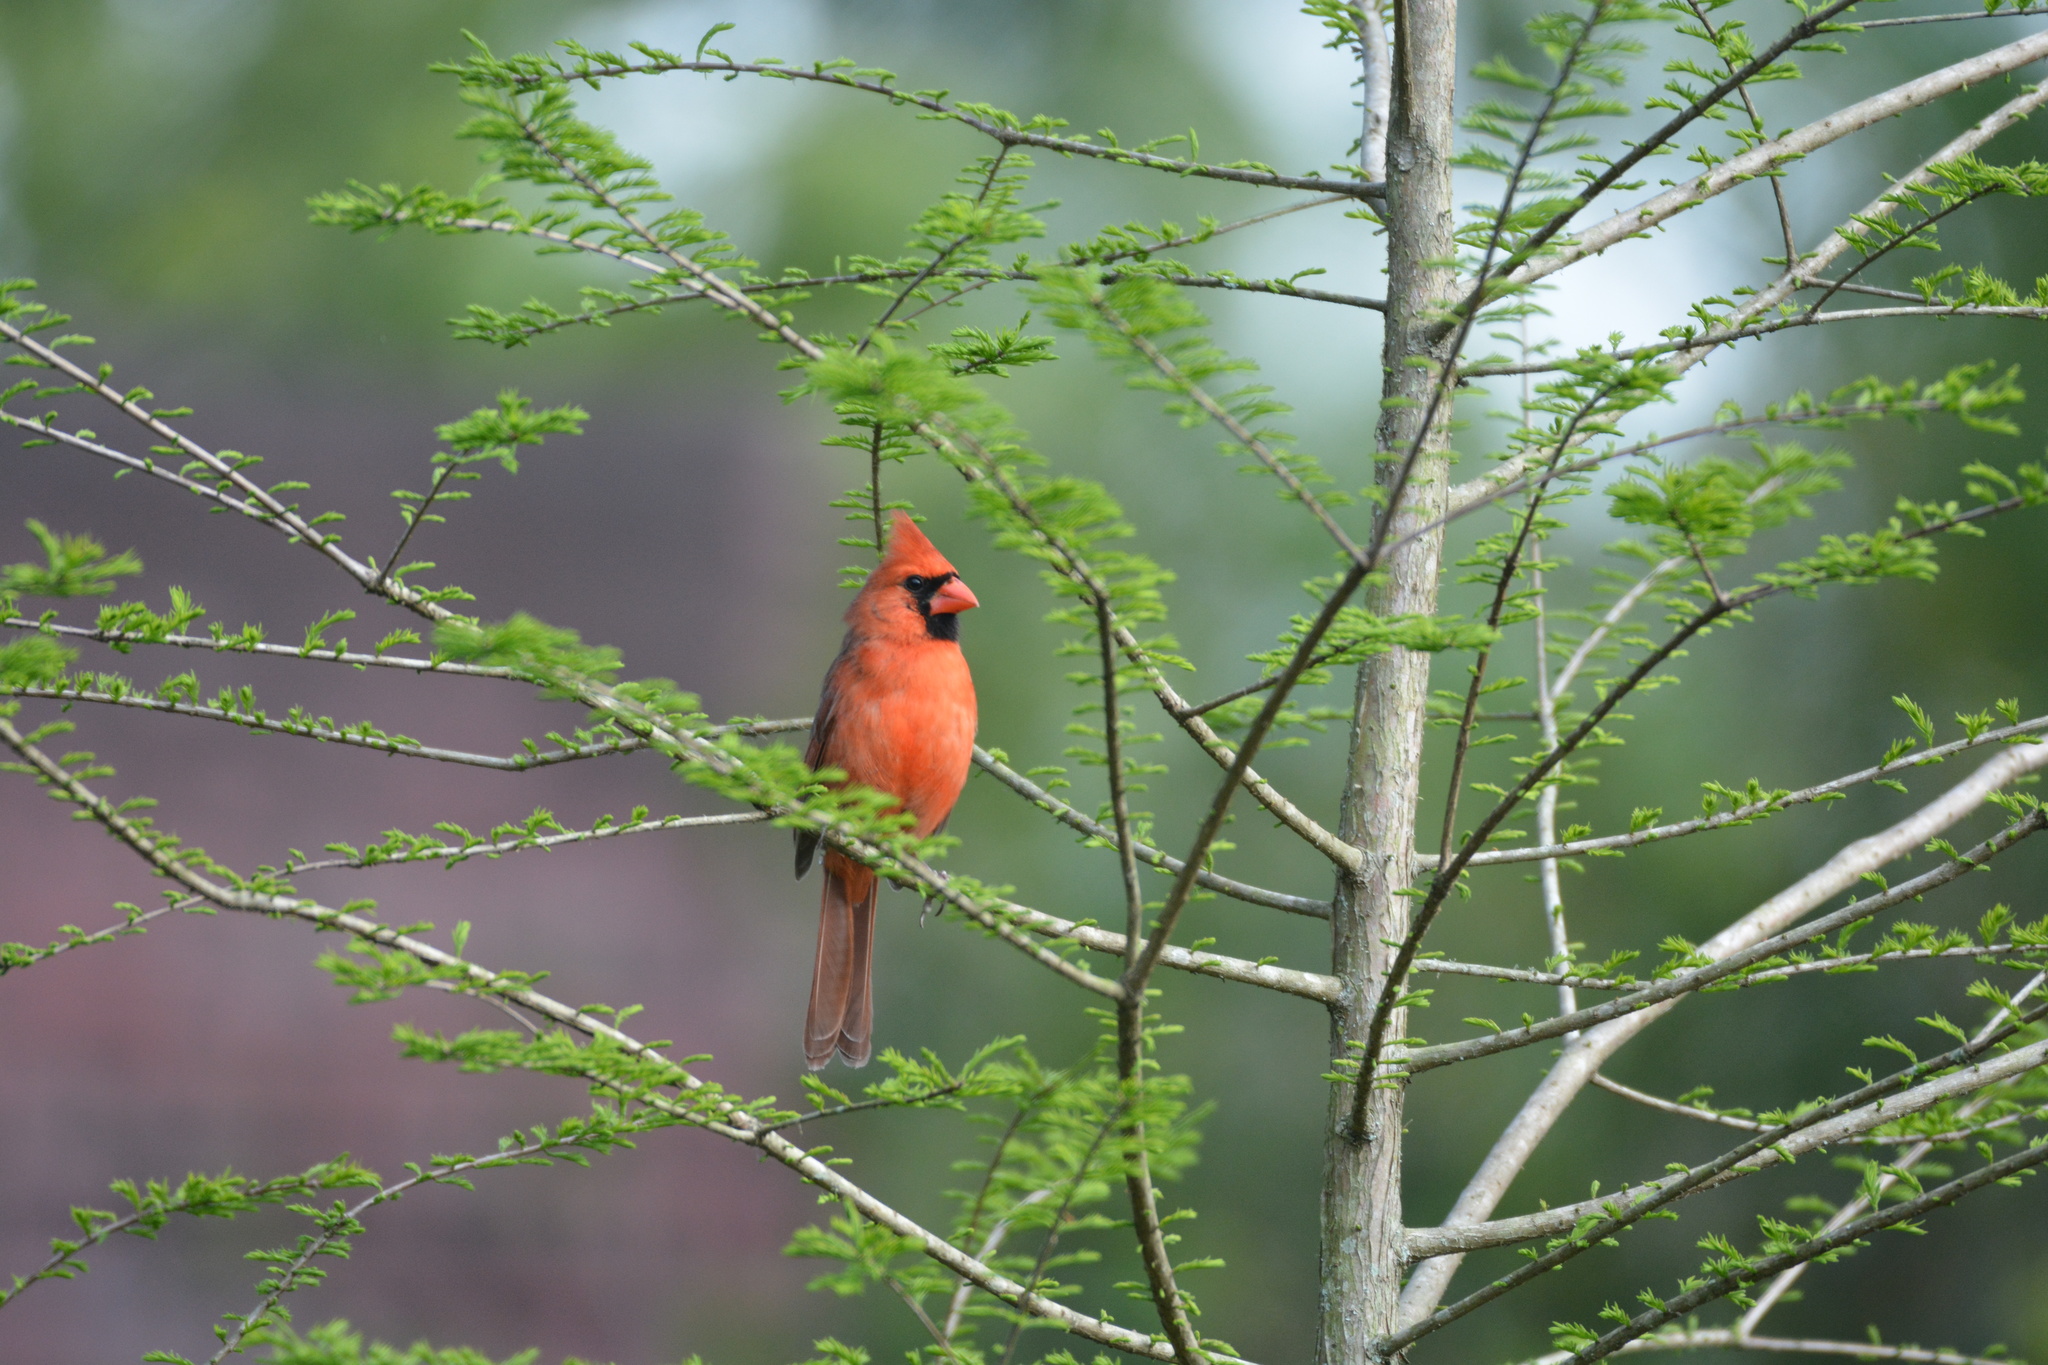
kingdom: Animalia
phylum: Chordata
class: Aves
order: Passeriformes
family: Cardinalidae
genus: Cardinalis
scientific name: Cardinalis cardinalis
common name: Northern cardinal
